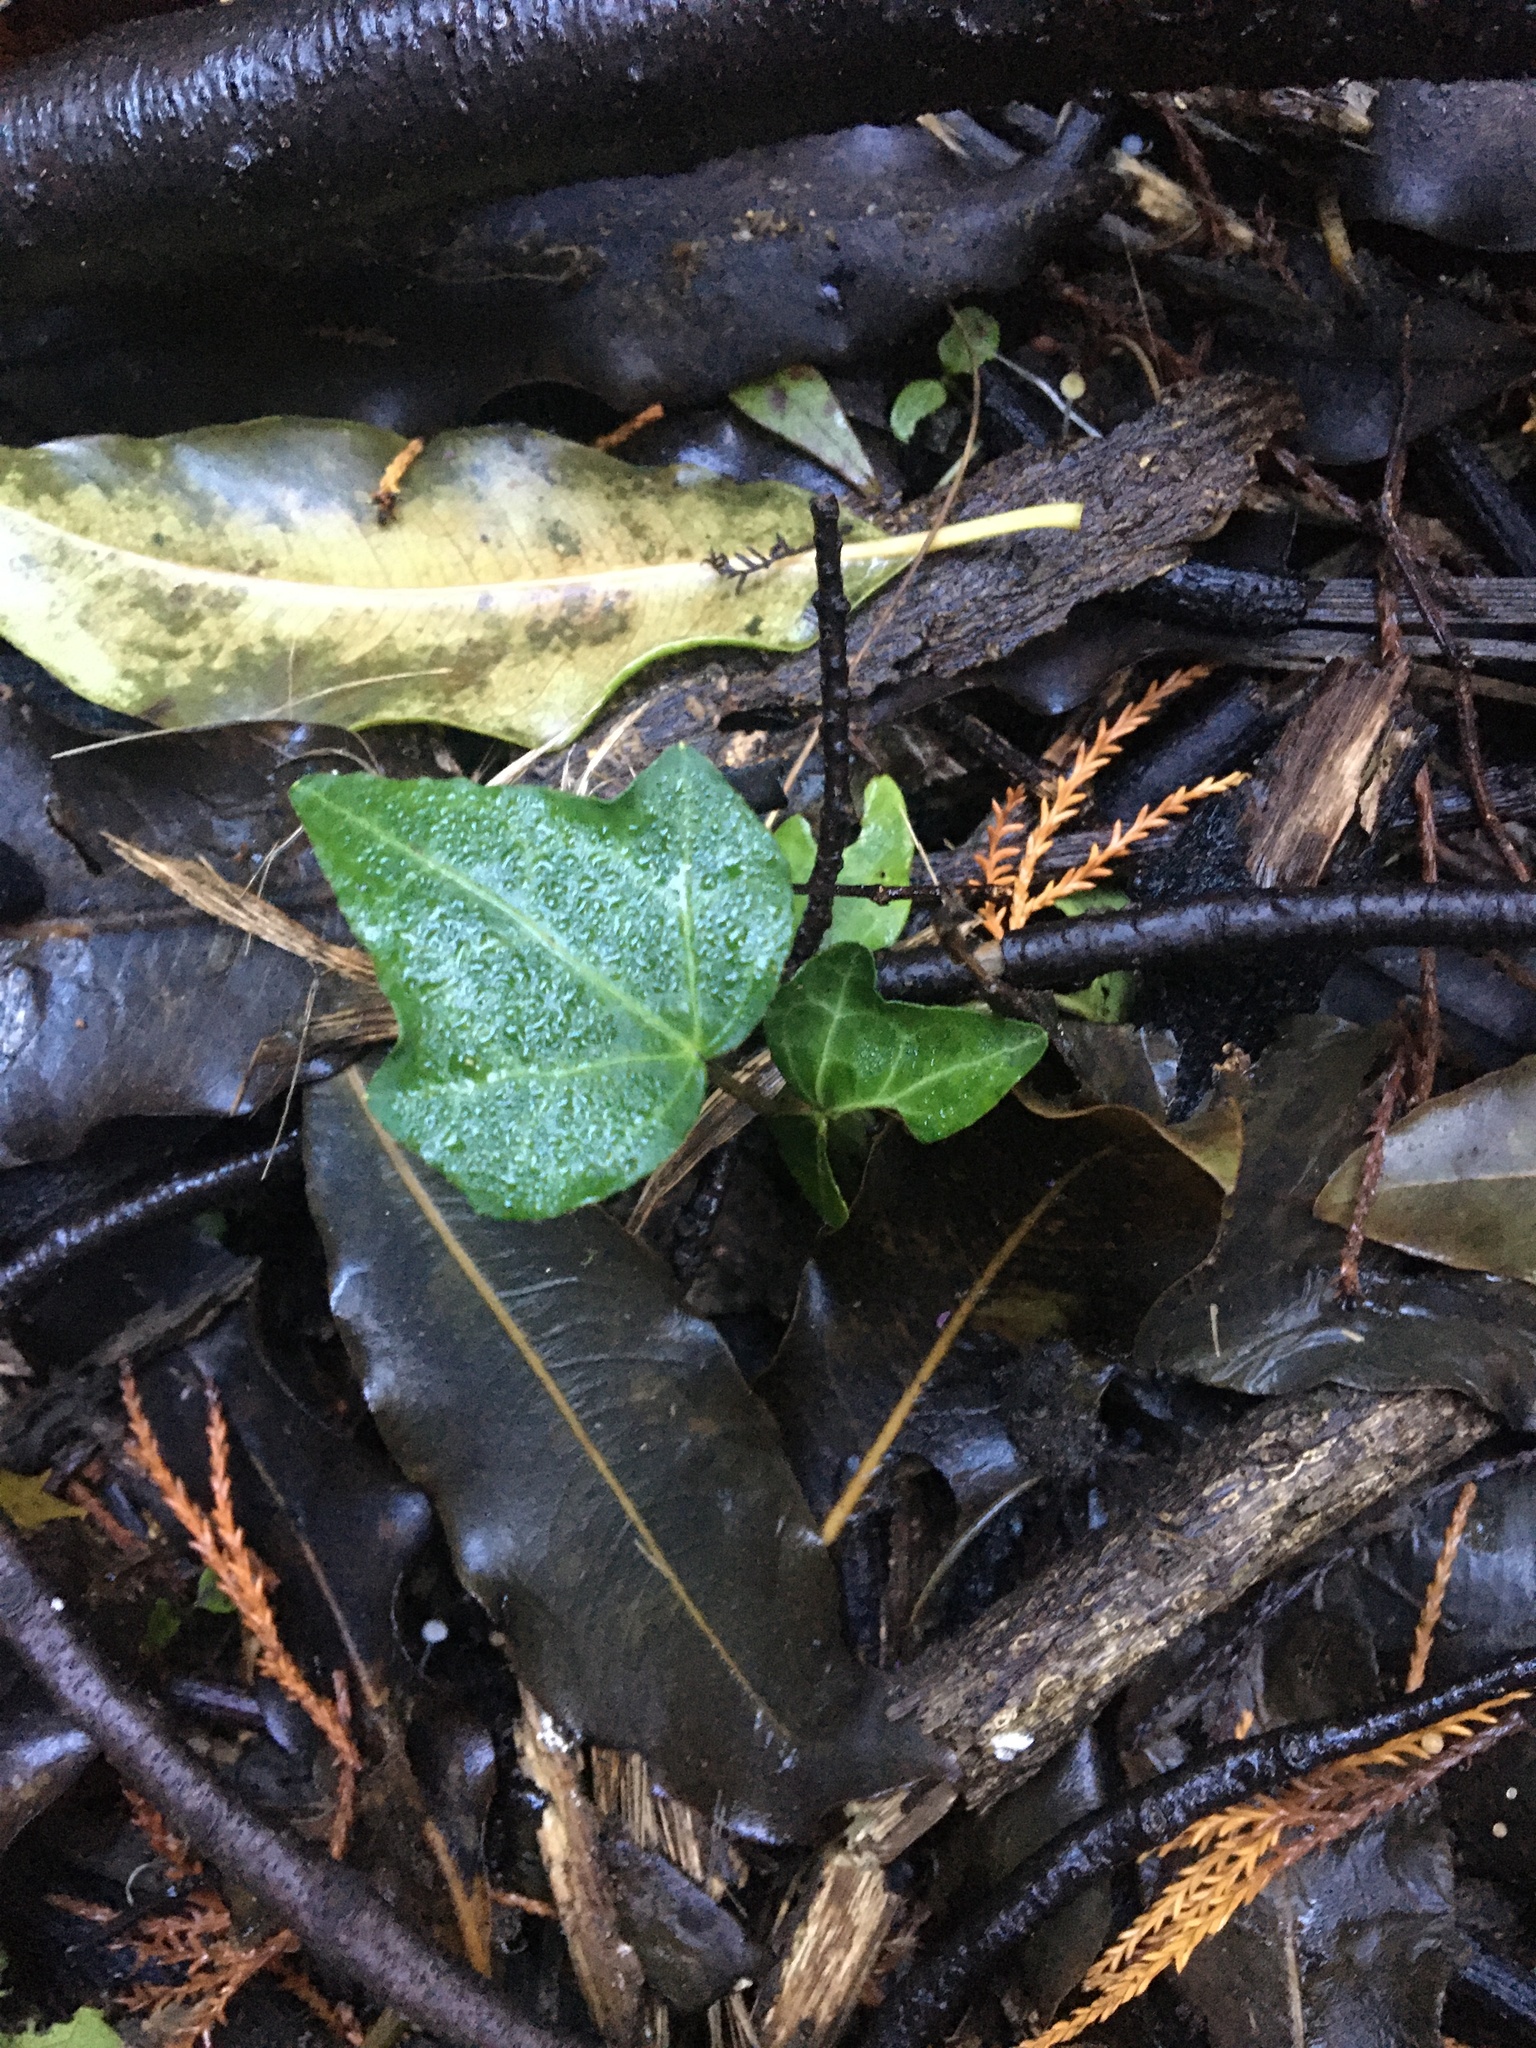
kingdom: Plantae
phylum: Tracheophyta
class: Magnoliopsida
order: Apiales
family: Araliaceae
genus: Hedera
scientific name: Hedera helix
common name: Ivy
